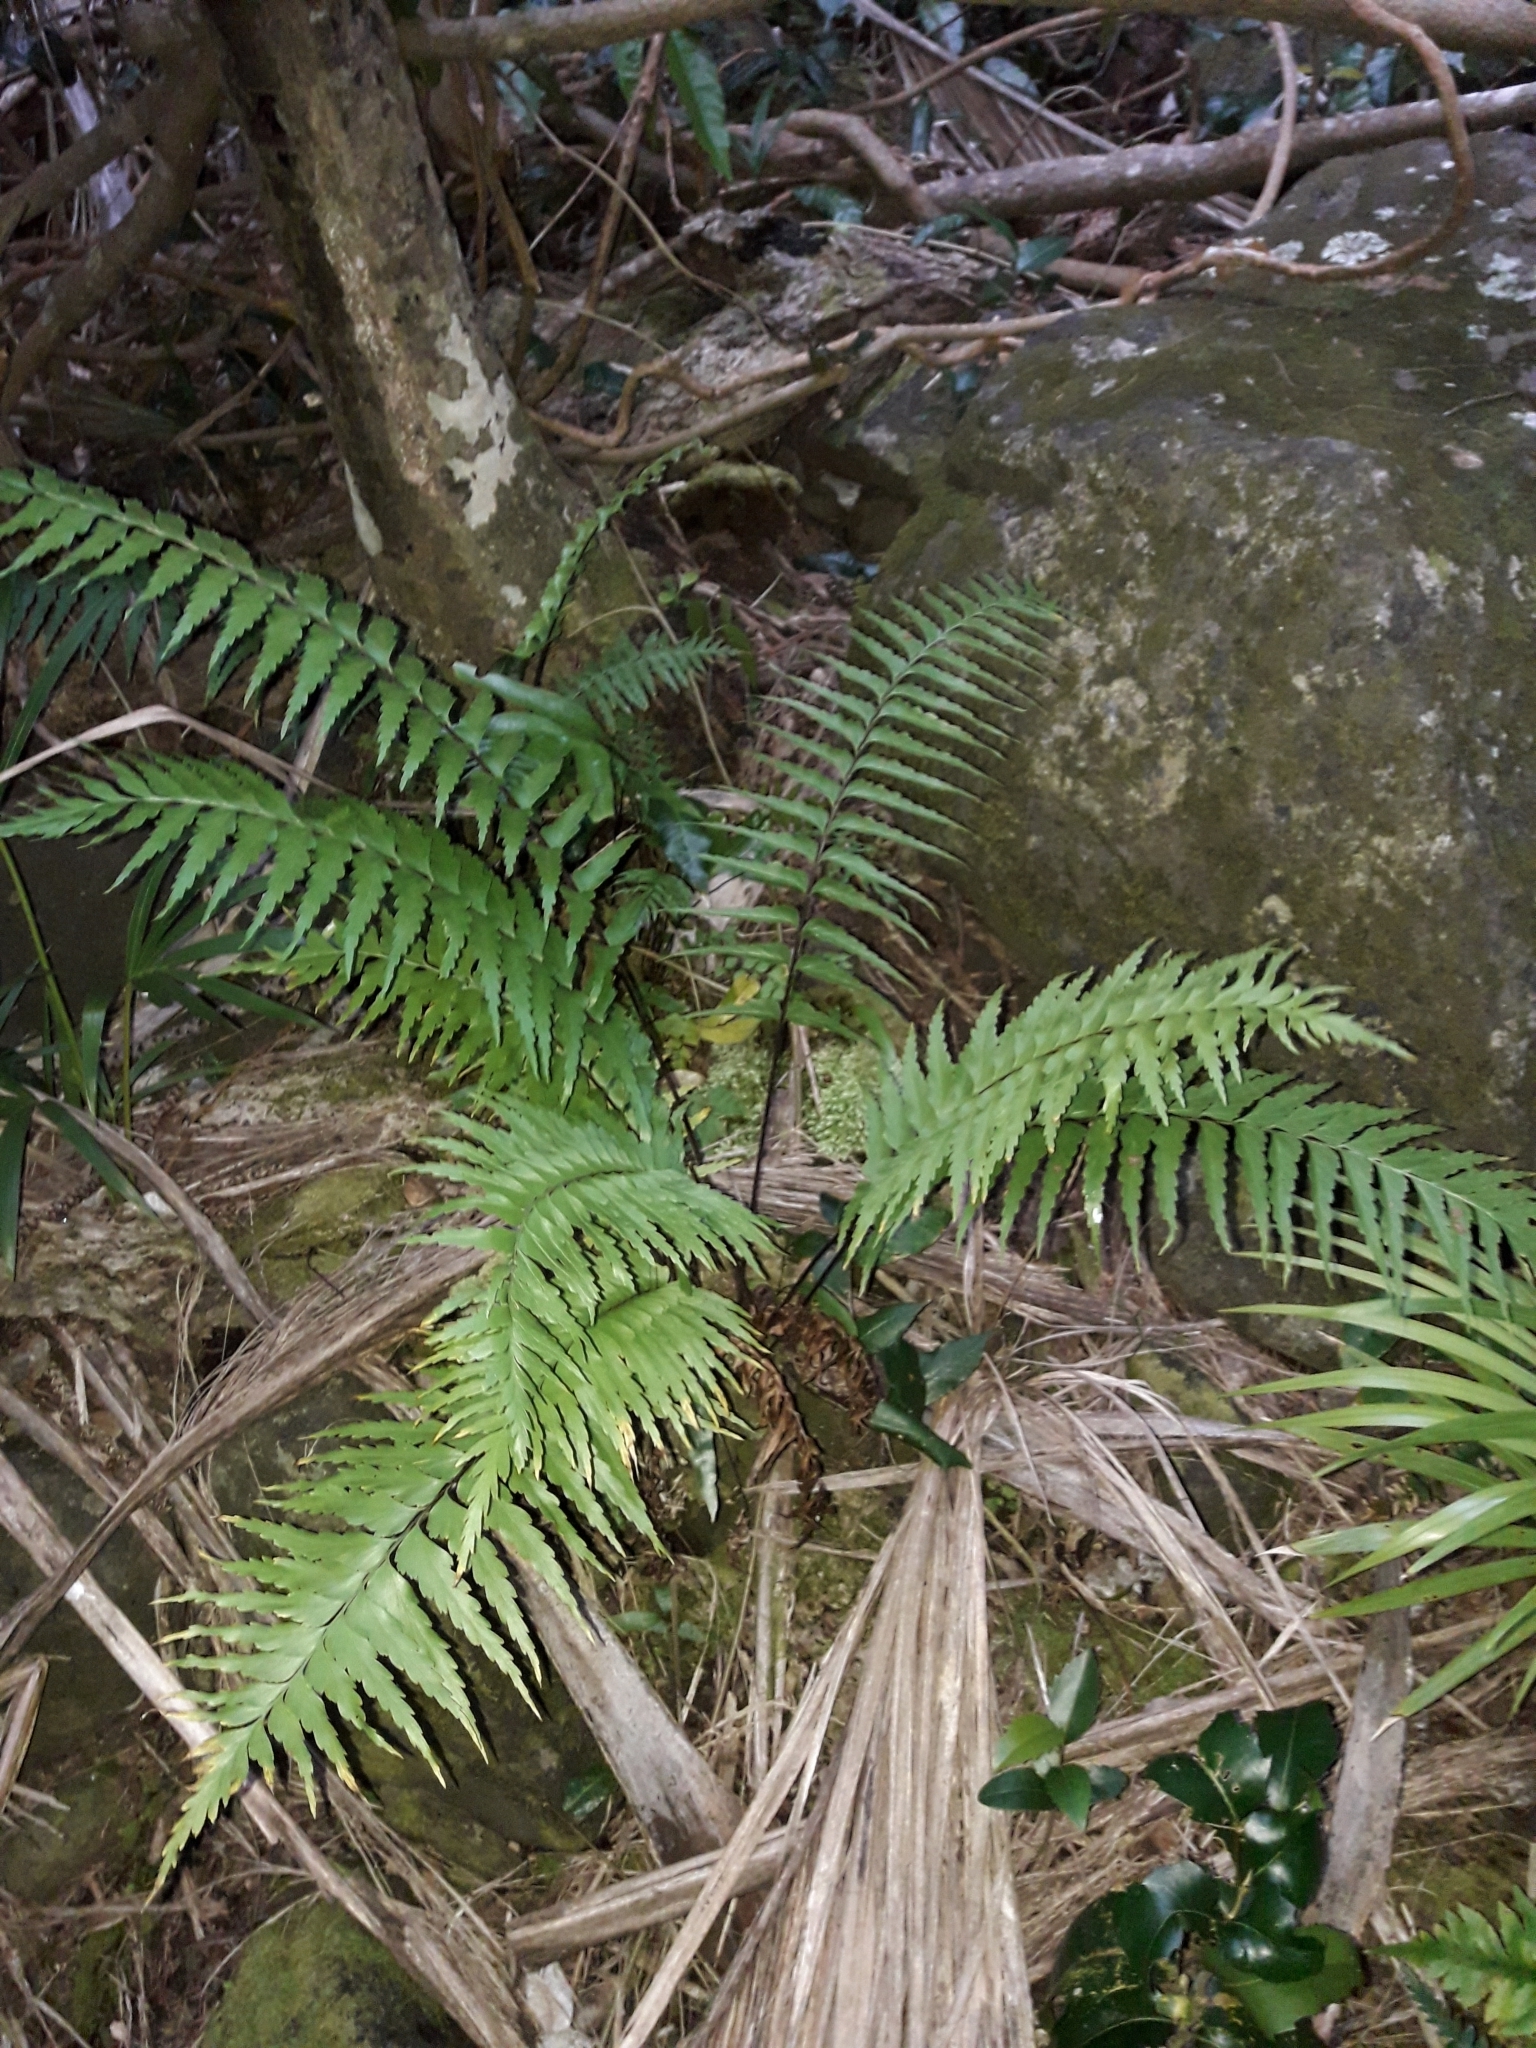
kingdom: Plantae
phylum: Tracheophyta
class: Polypodiopsida
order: Polypodiales
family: Aspleniaceae
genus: Asplenium
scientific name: Asplenium polyodon
